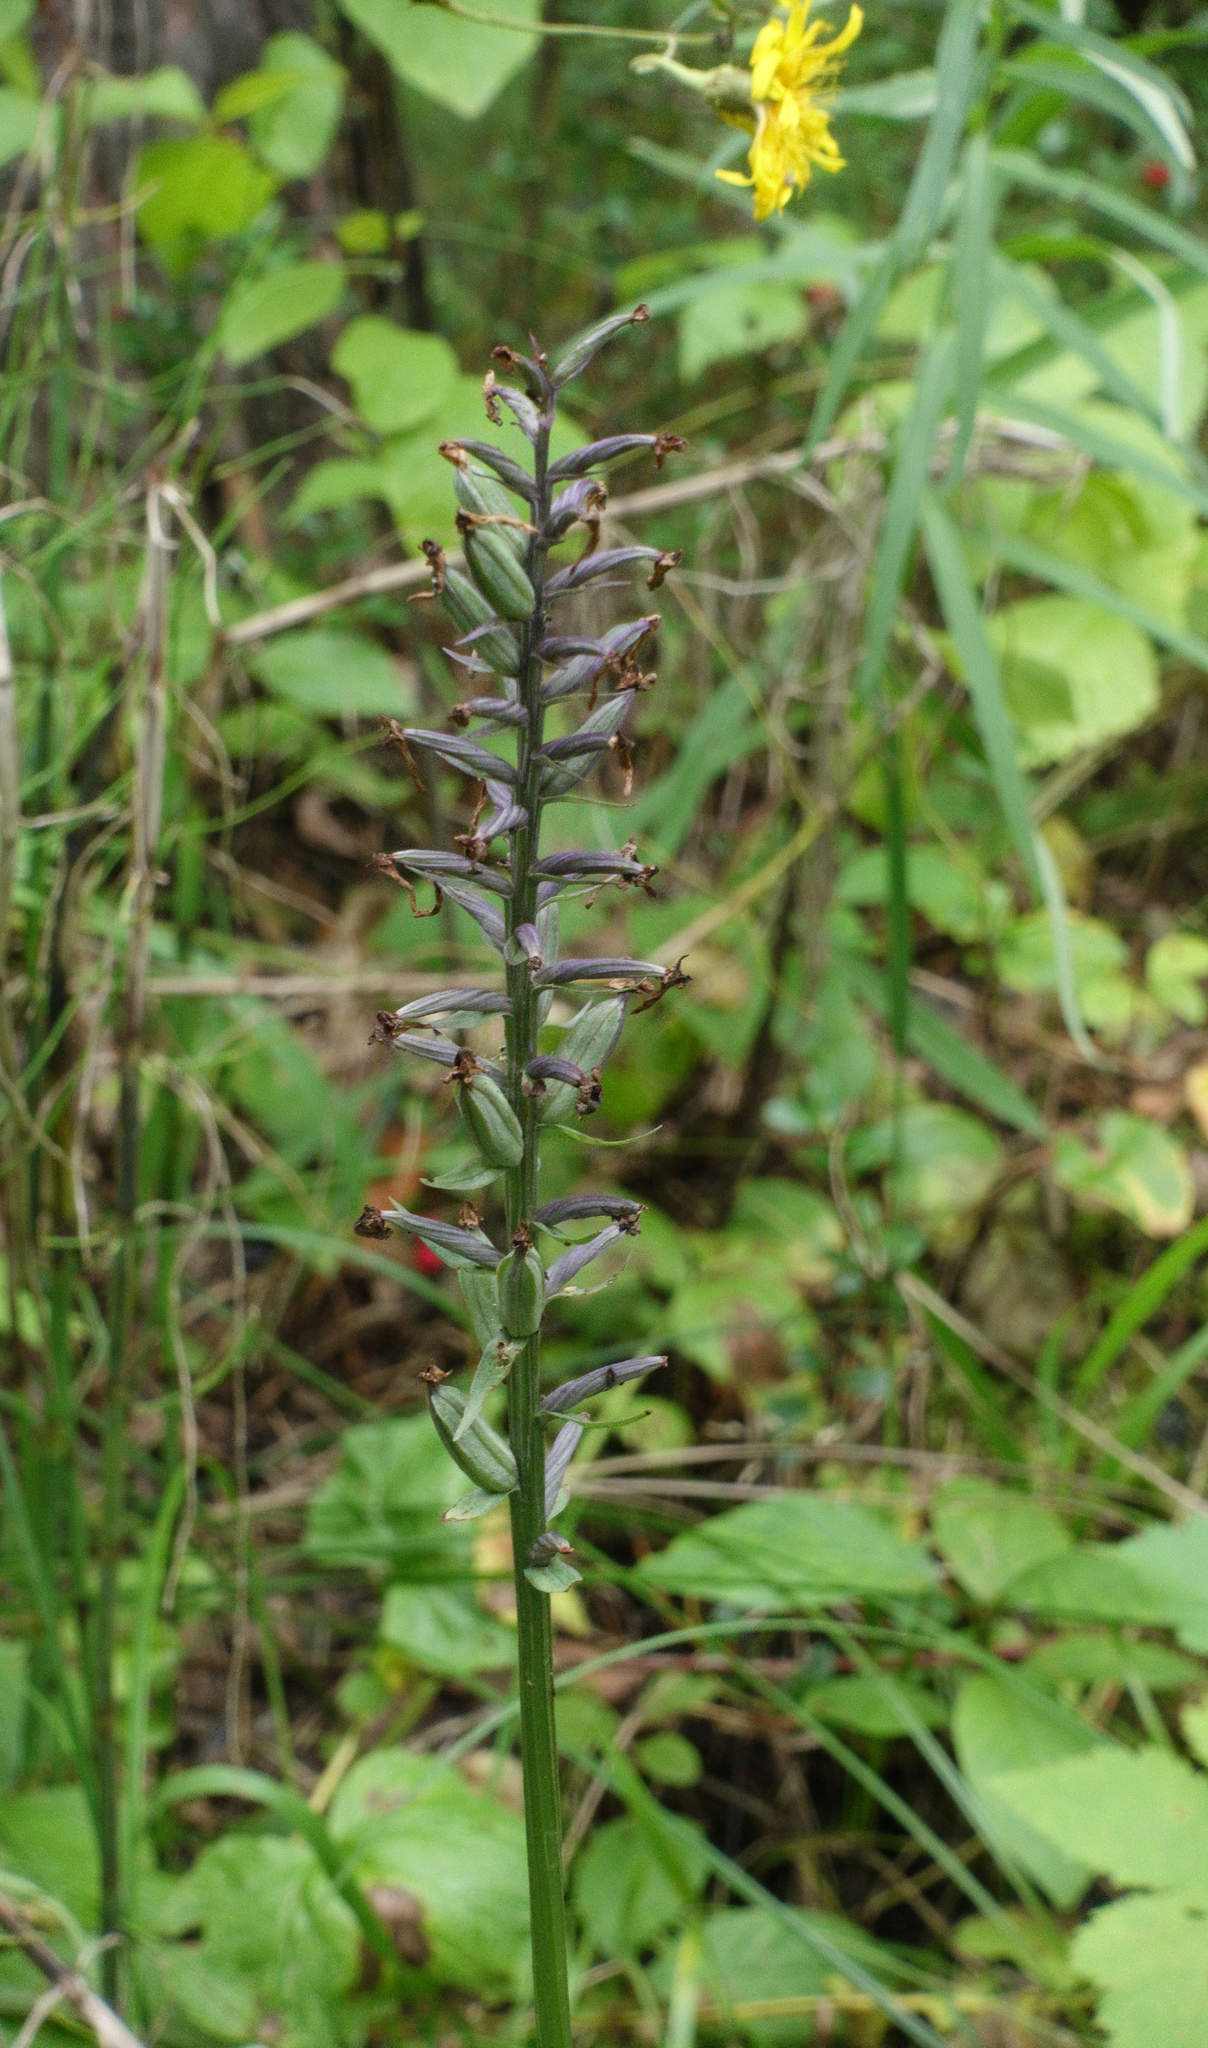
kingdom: Plantae
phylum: Tracheophyta
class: Liliopsida
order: Asparagales
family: Orchidaceae
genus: Dactylorhiza
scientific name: Dactylorhiza maculata
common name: Heath spotted-orchid
